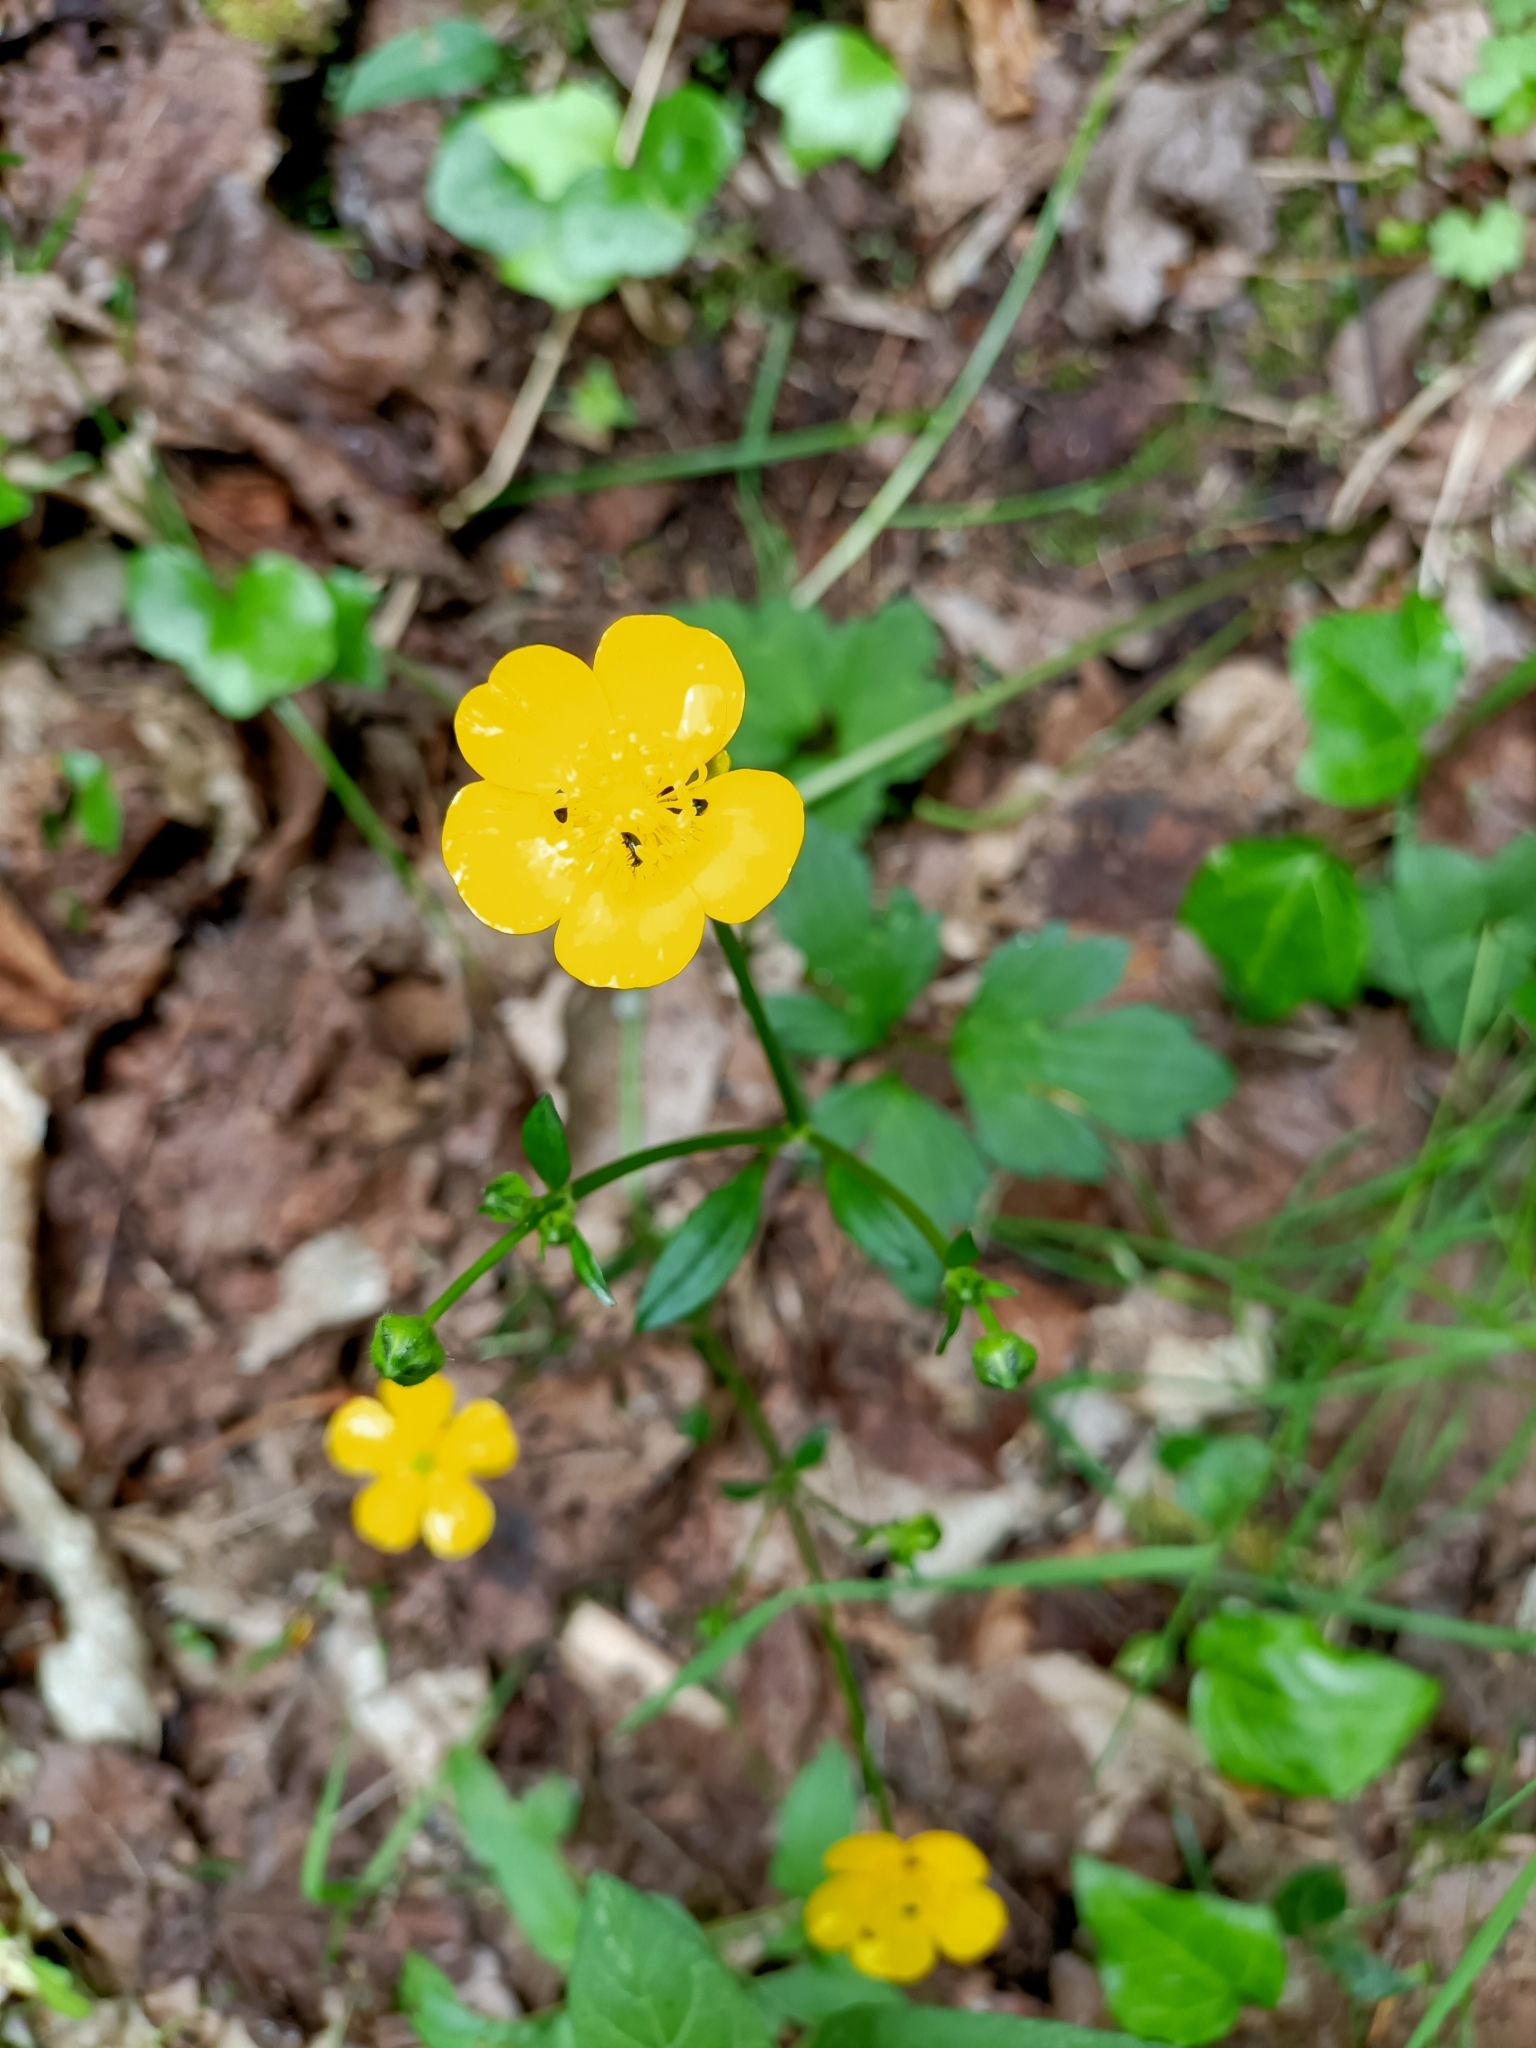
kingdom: Plantae
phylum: Tracheophyta
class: Magnoliopsida
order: Ranunculales
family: Ranunculaceae
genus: Ranunculus
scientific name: Ranunculus repens
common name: Creeping buttercup
